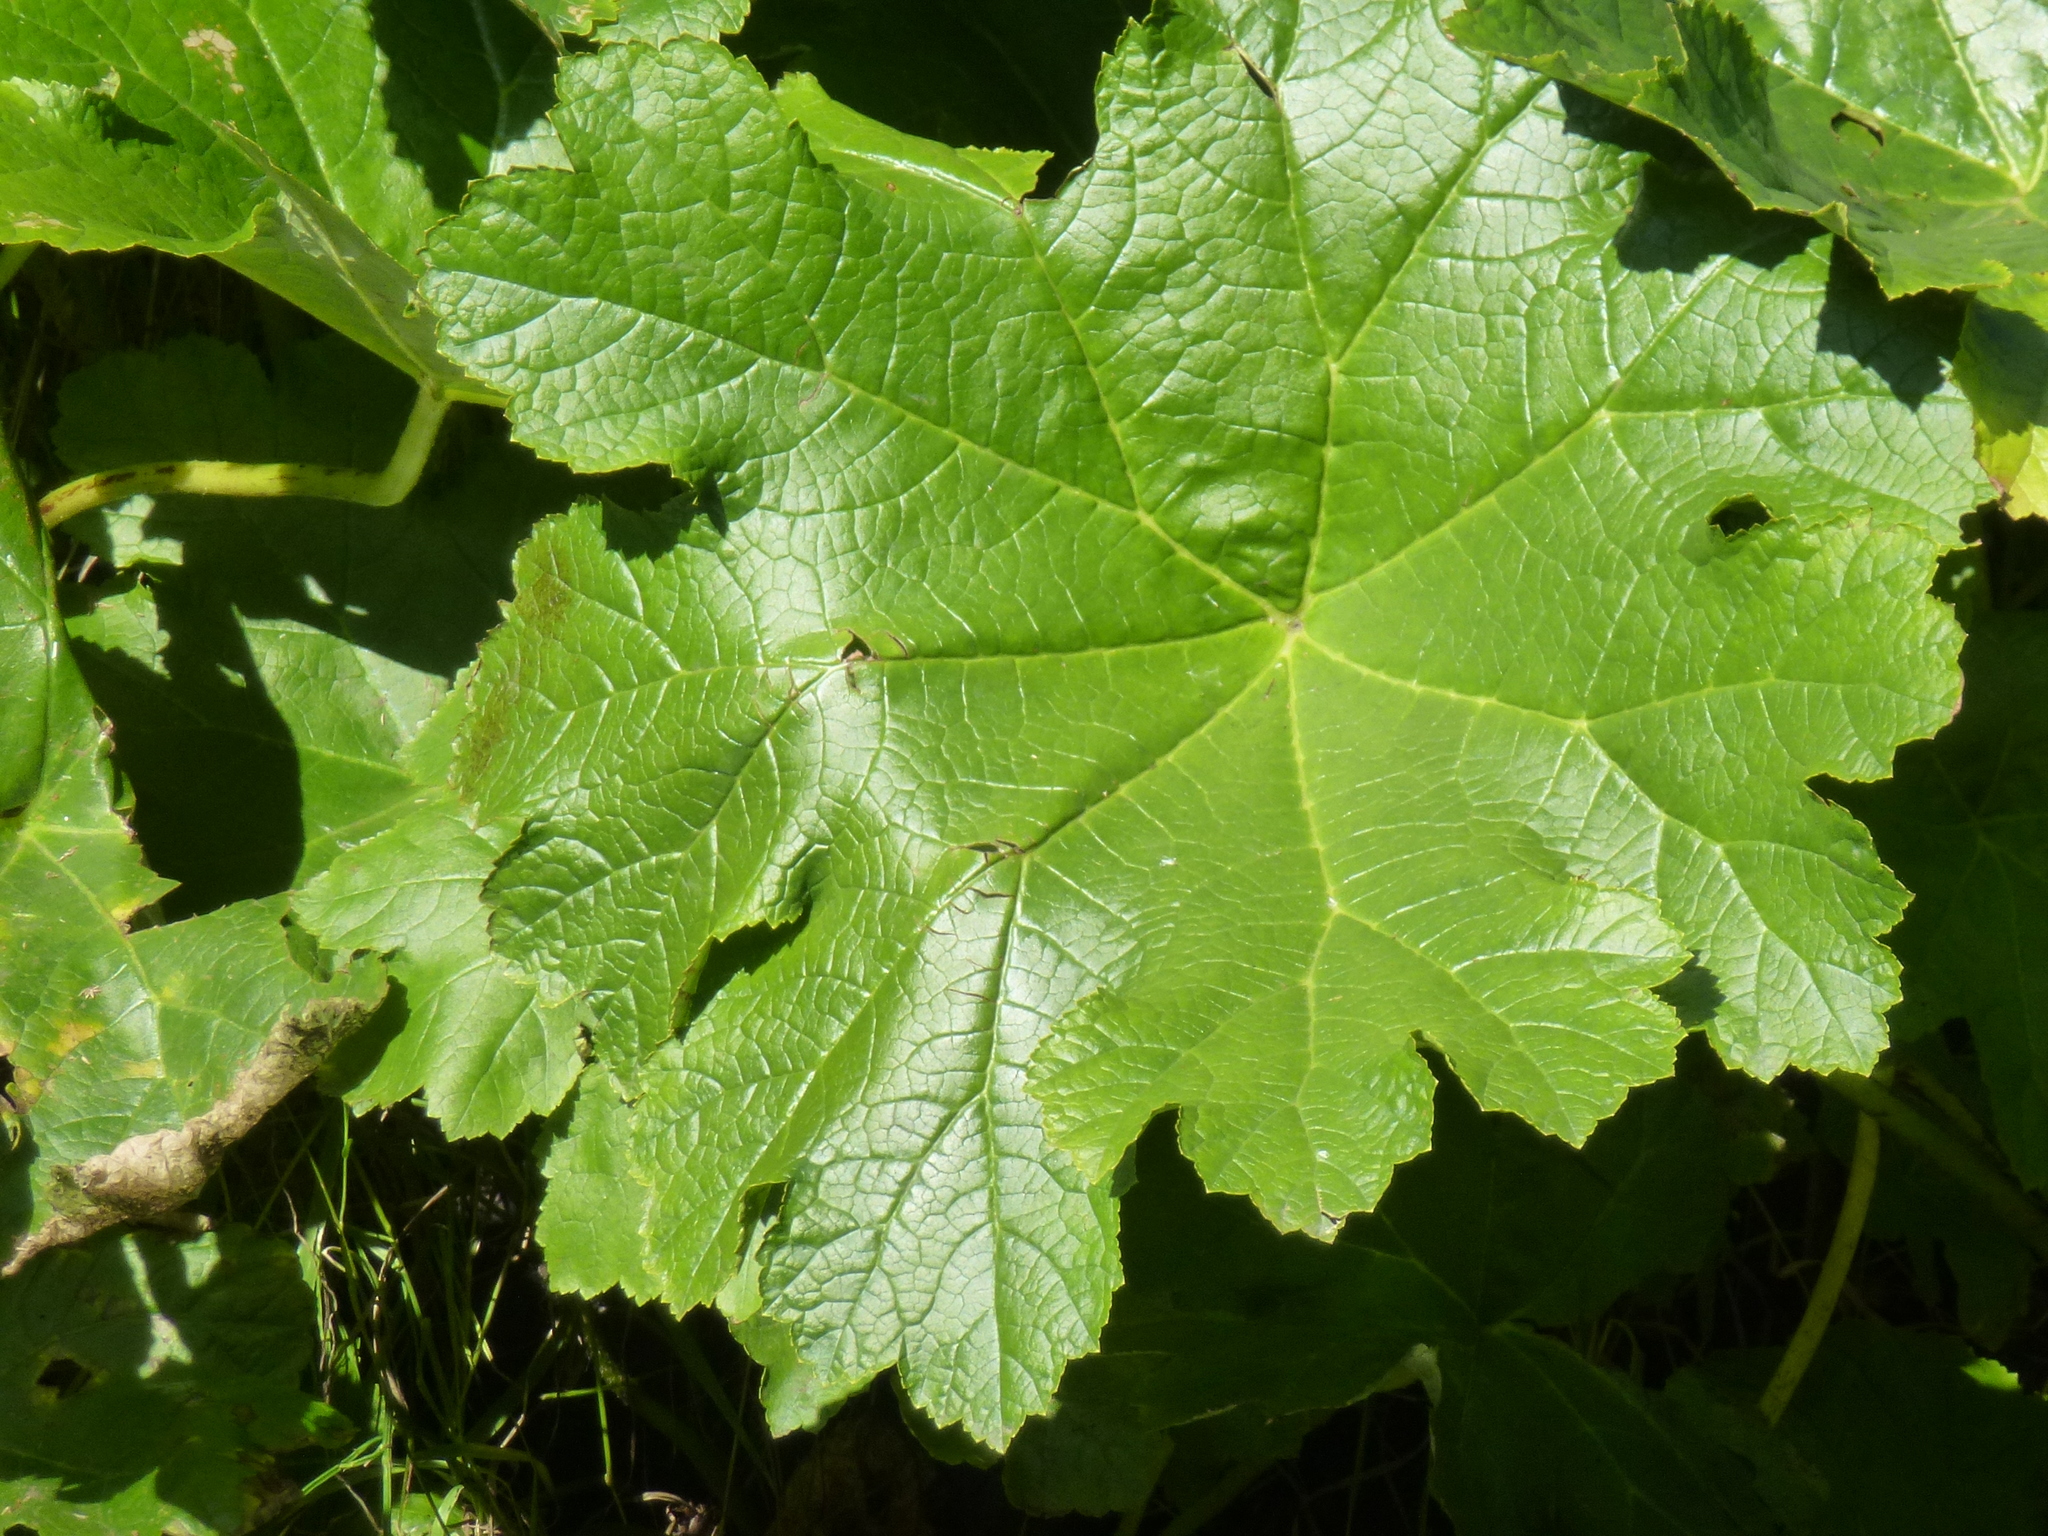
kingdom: Plantae
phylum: Tracheophyta
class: Magnoliopsida
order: Saxifragales
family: Saxifragaceae
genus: Darmera
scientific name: Darmera peltata
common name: Indian-rhubarb
